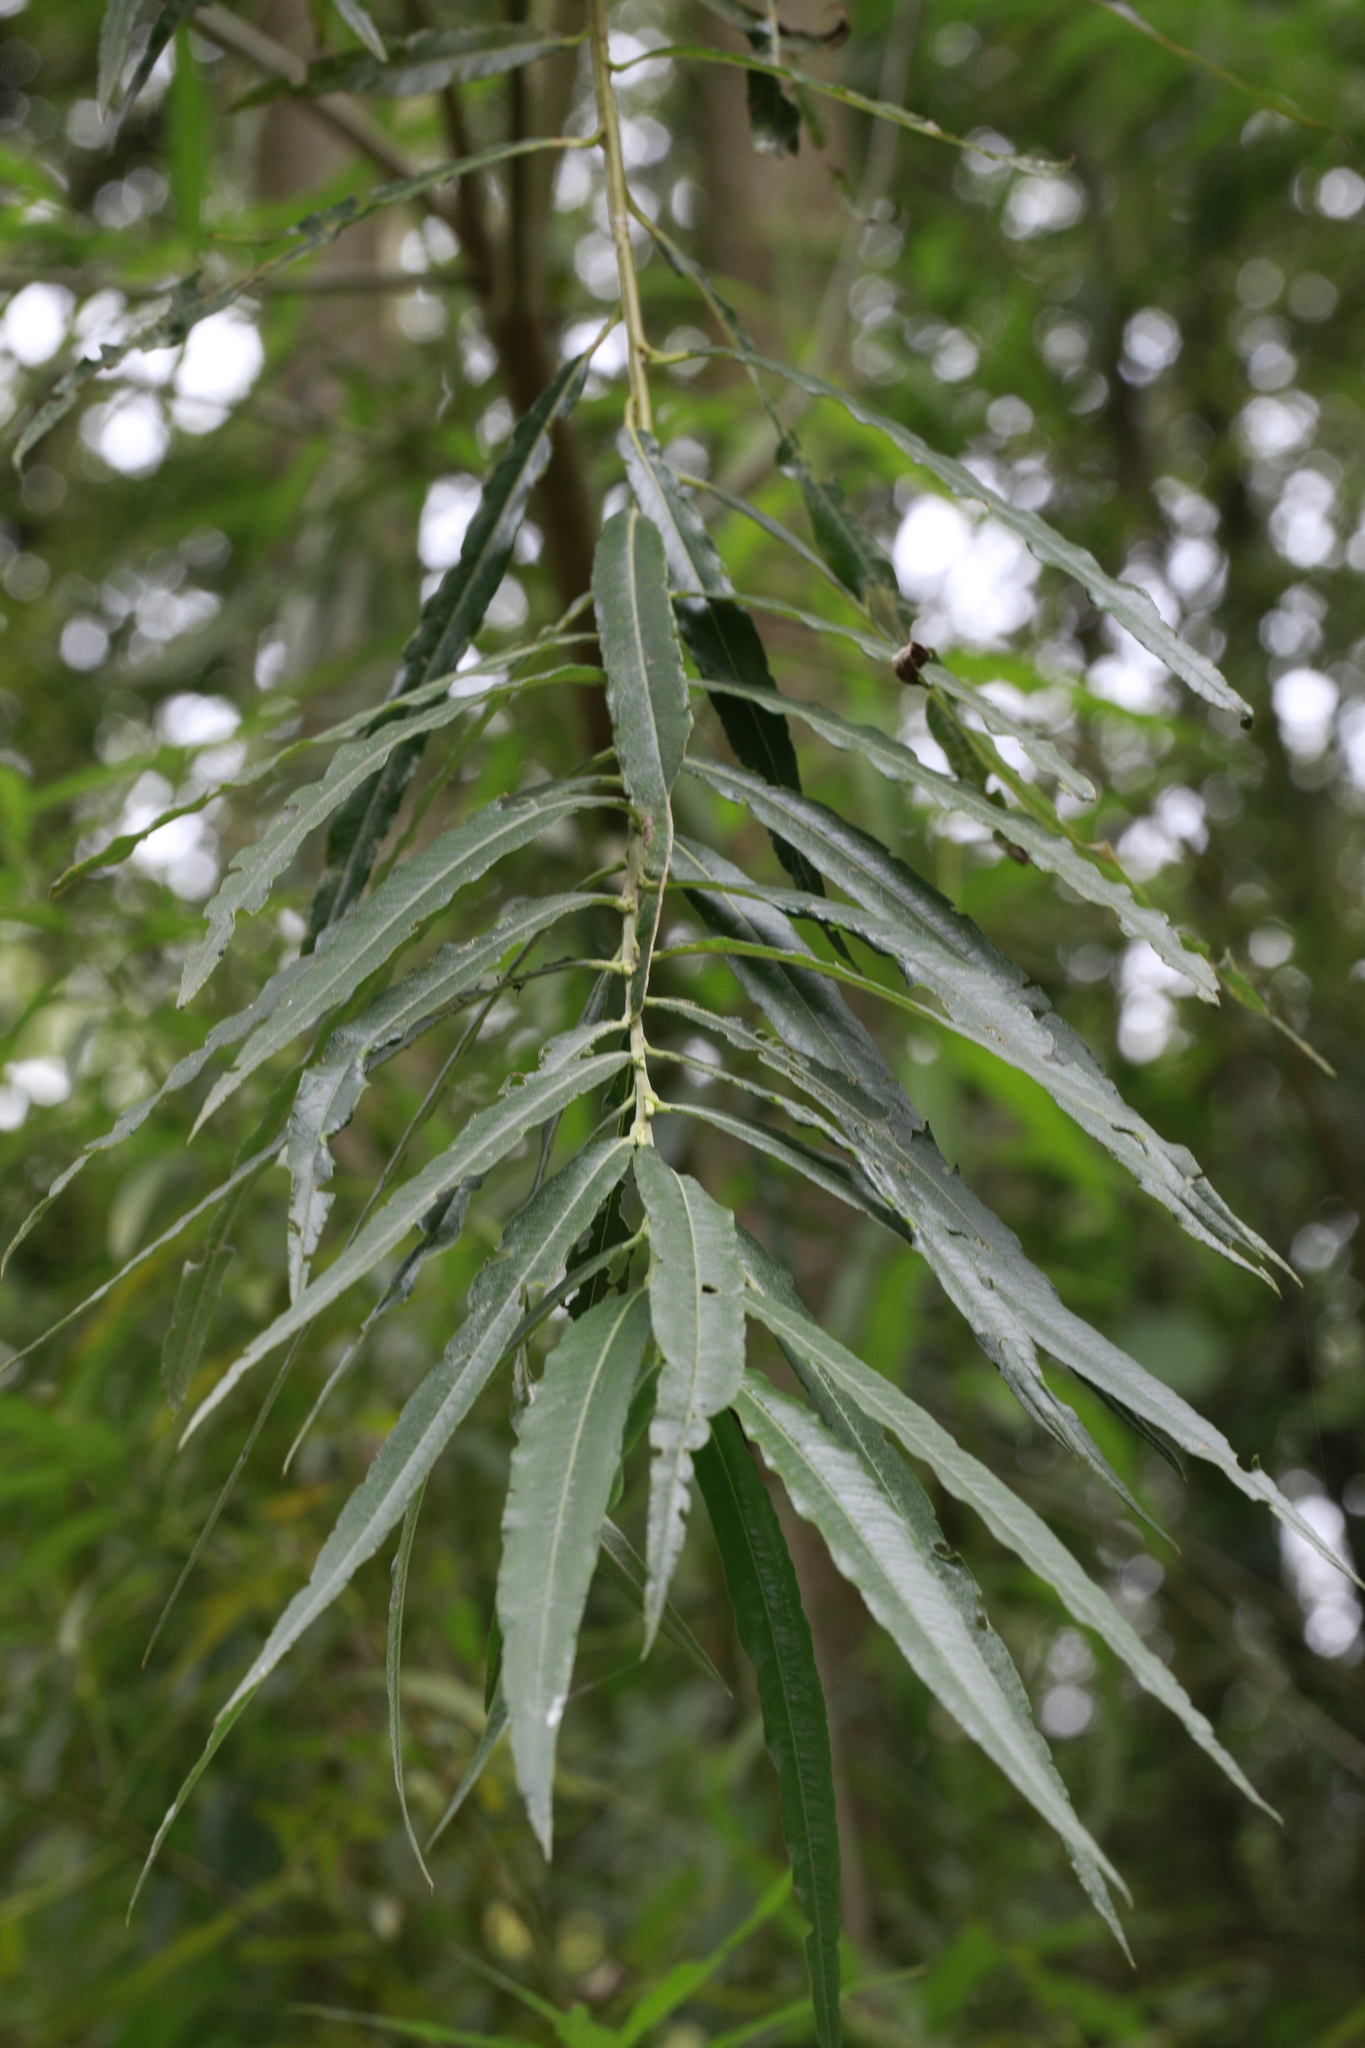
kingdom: Plantae
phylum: Tracheophyta
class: Magnoliopsida
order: Malpighiales
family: Salicaceae
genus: Salix
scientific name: Salix viminalis
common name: Osier
